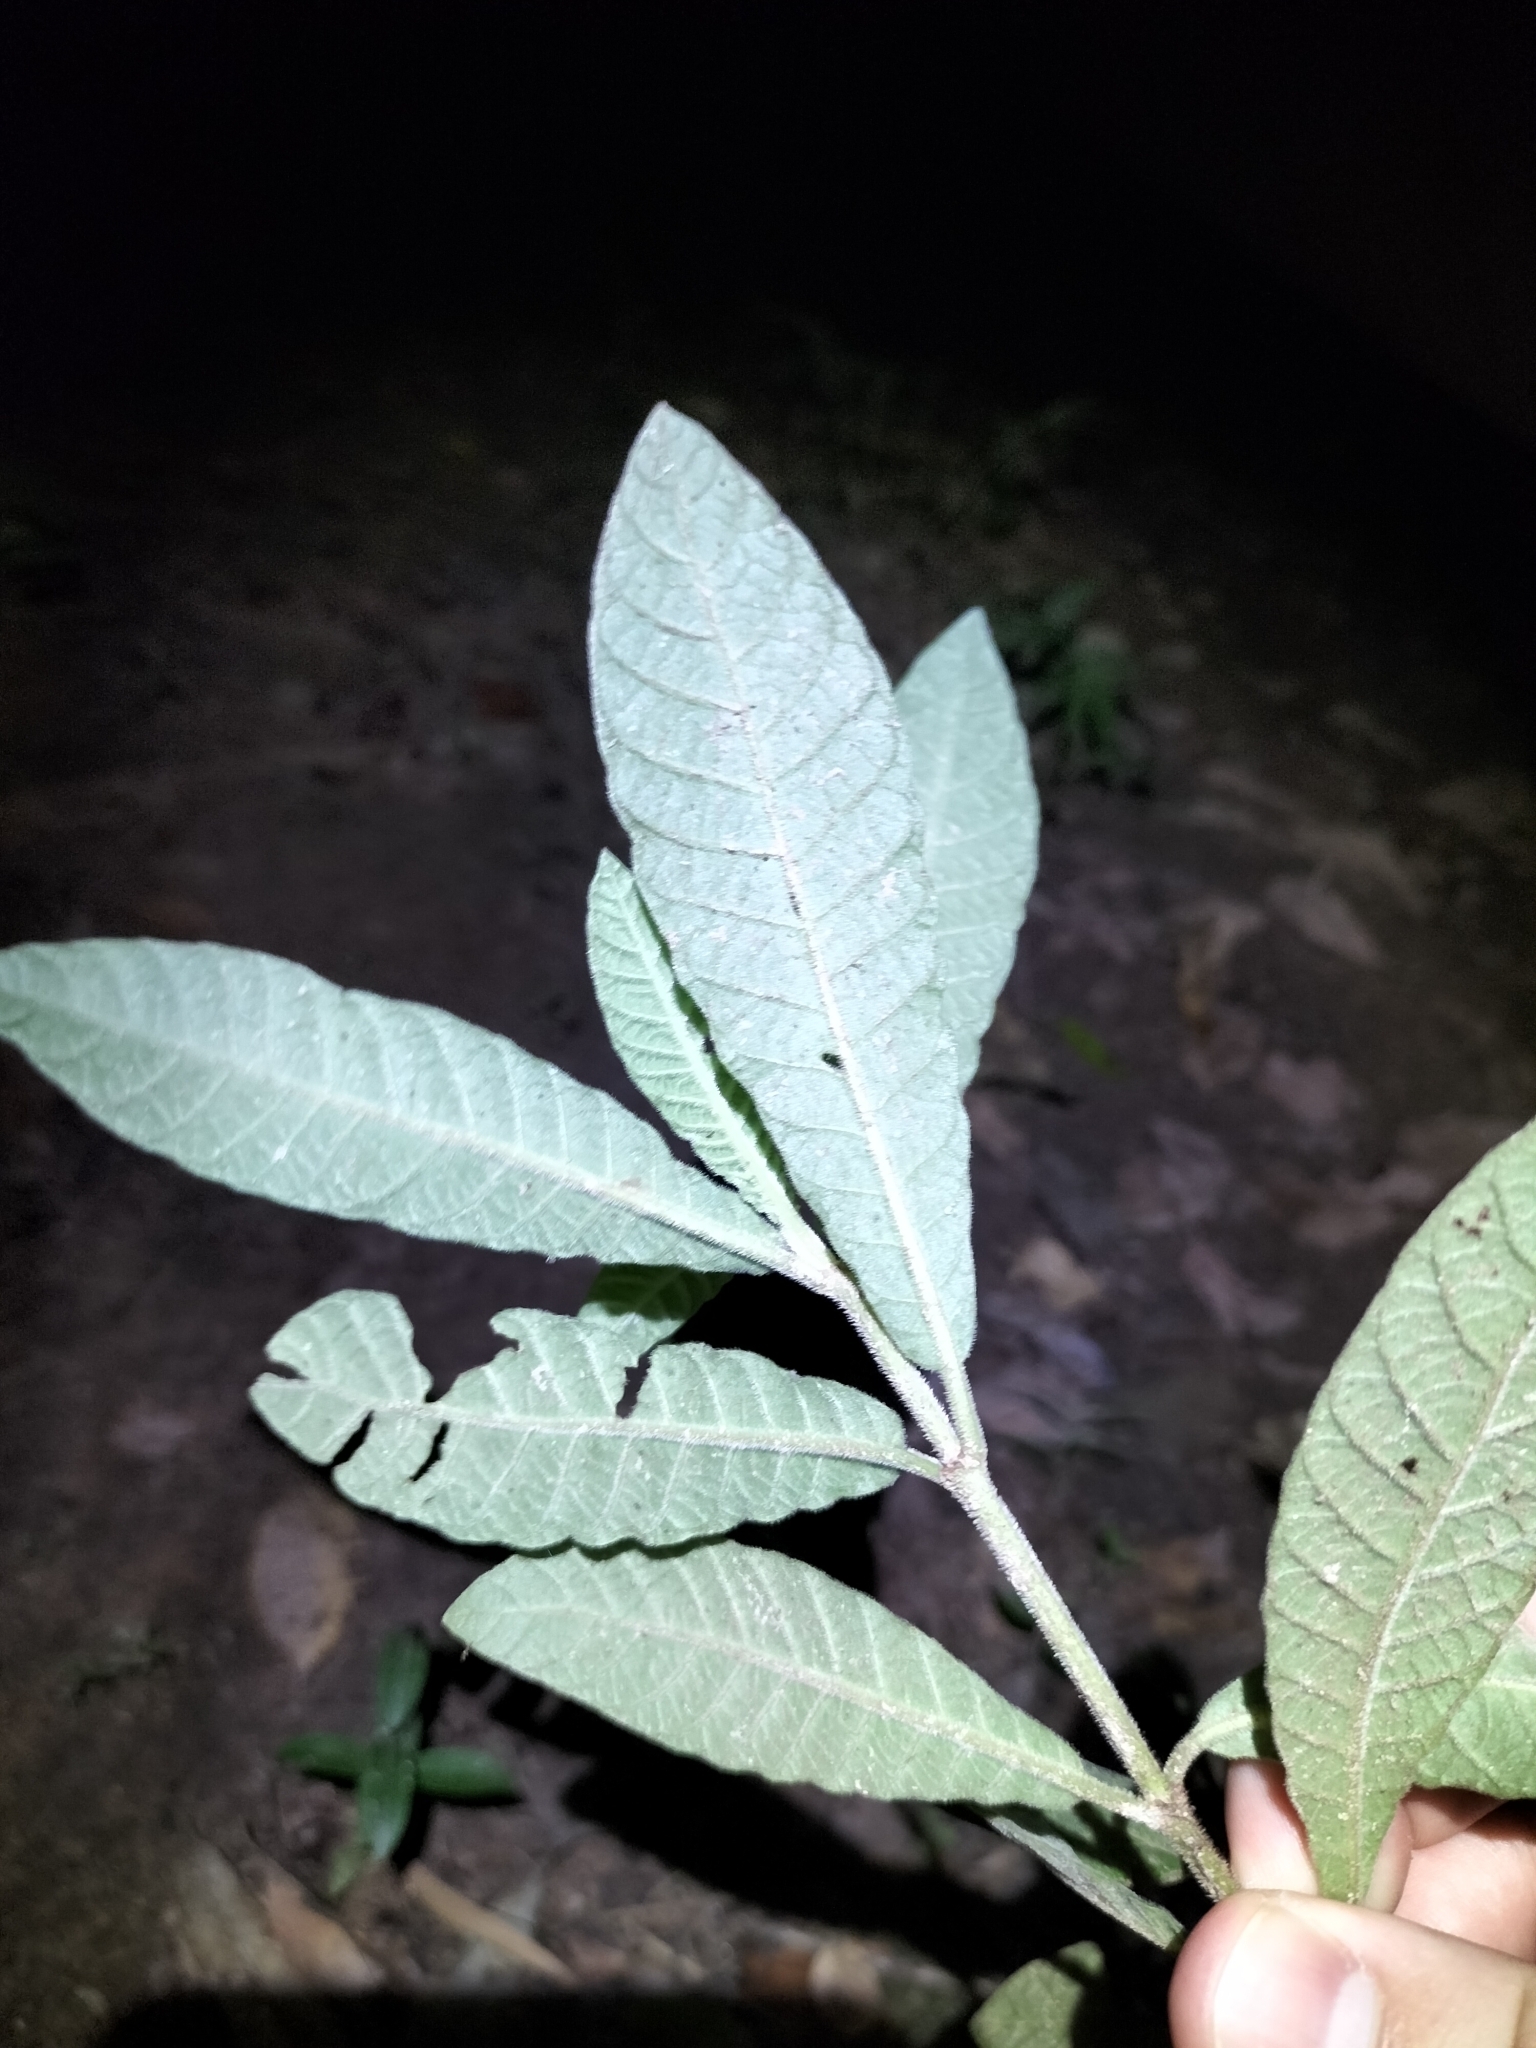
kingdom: Plantae
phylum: Tracheophyta
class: Magnoliopsida
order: Gentianales
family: Rubiaceae
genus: Psychotria
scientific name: Psychotria loniceroides
